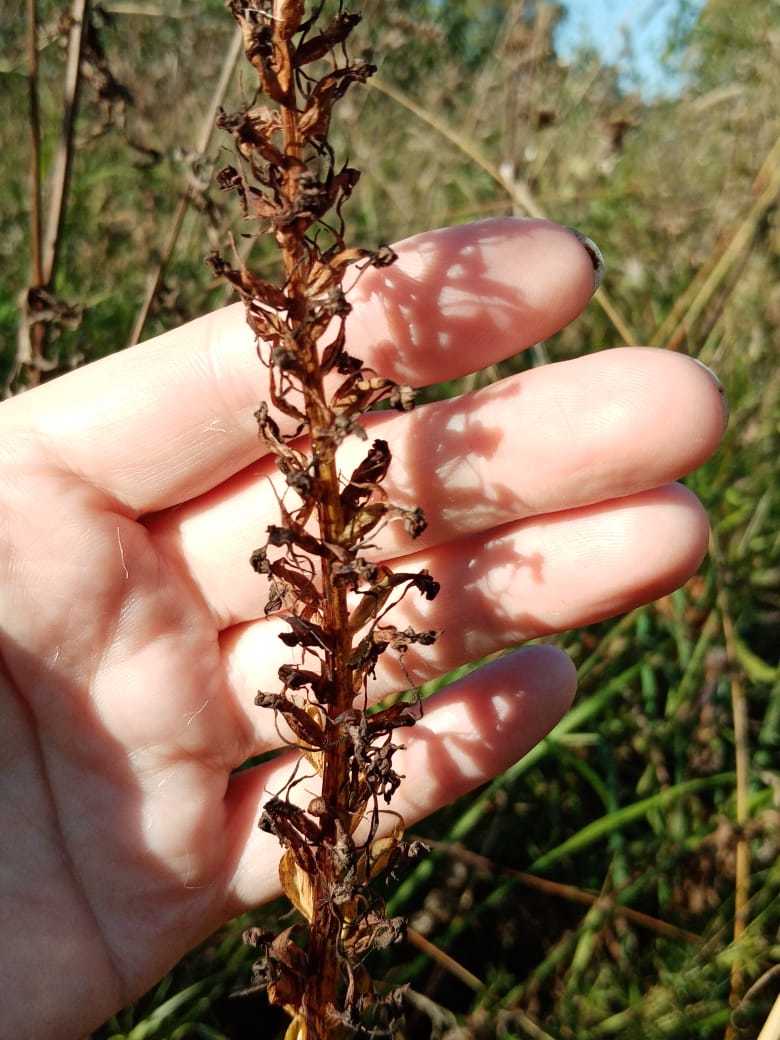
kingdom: Plantae
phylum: Tracheophyta
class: Liliopsida
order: Asparagales
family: Orchidaceae
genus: Gymnadenia
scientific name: Gymnadenia conopsea
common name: Fragrant orchid
